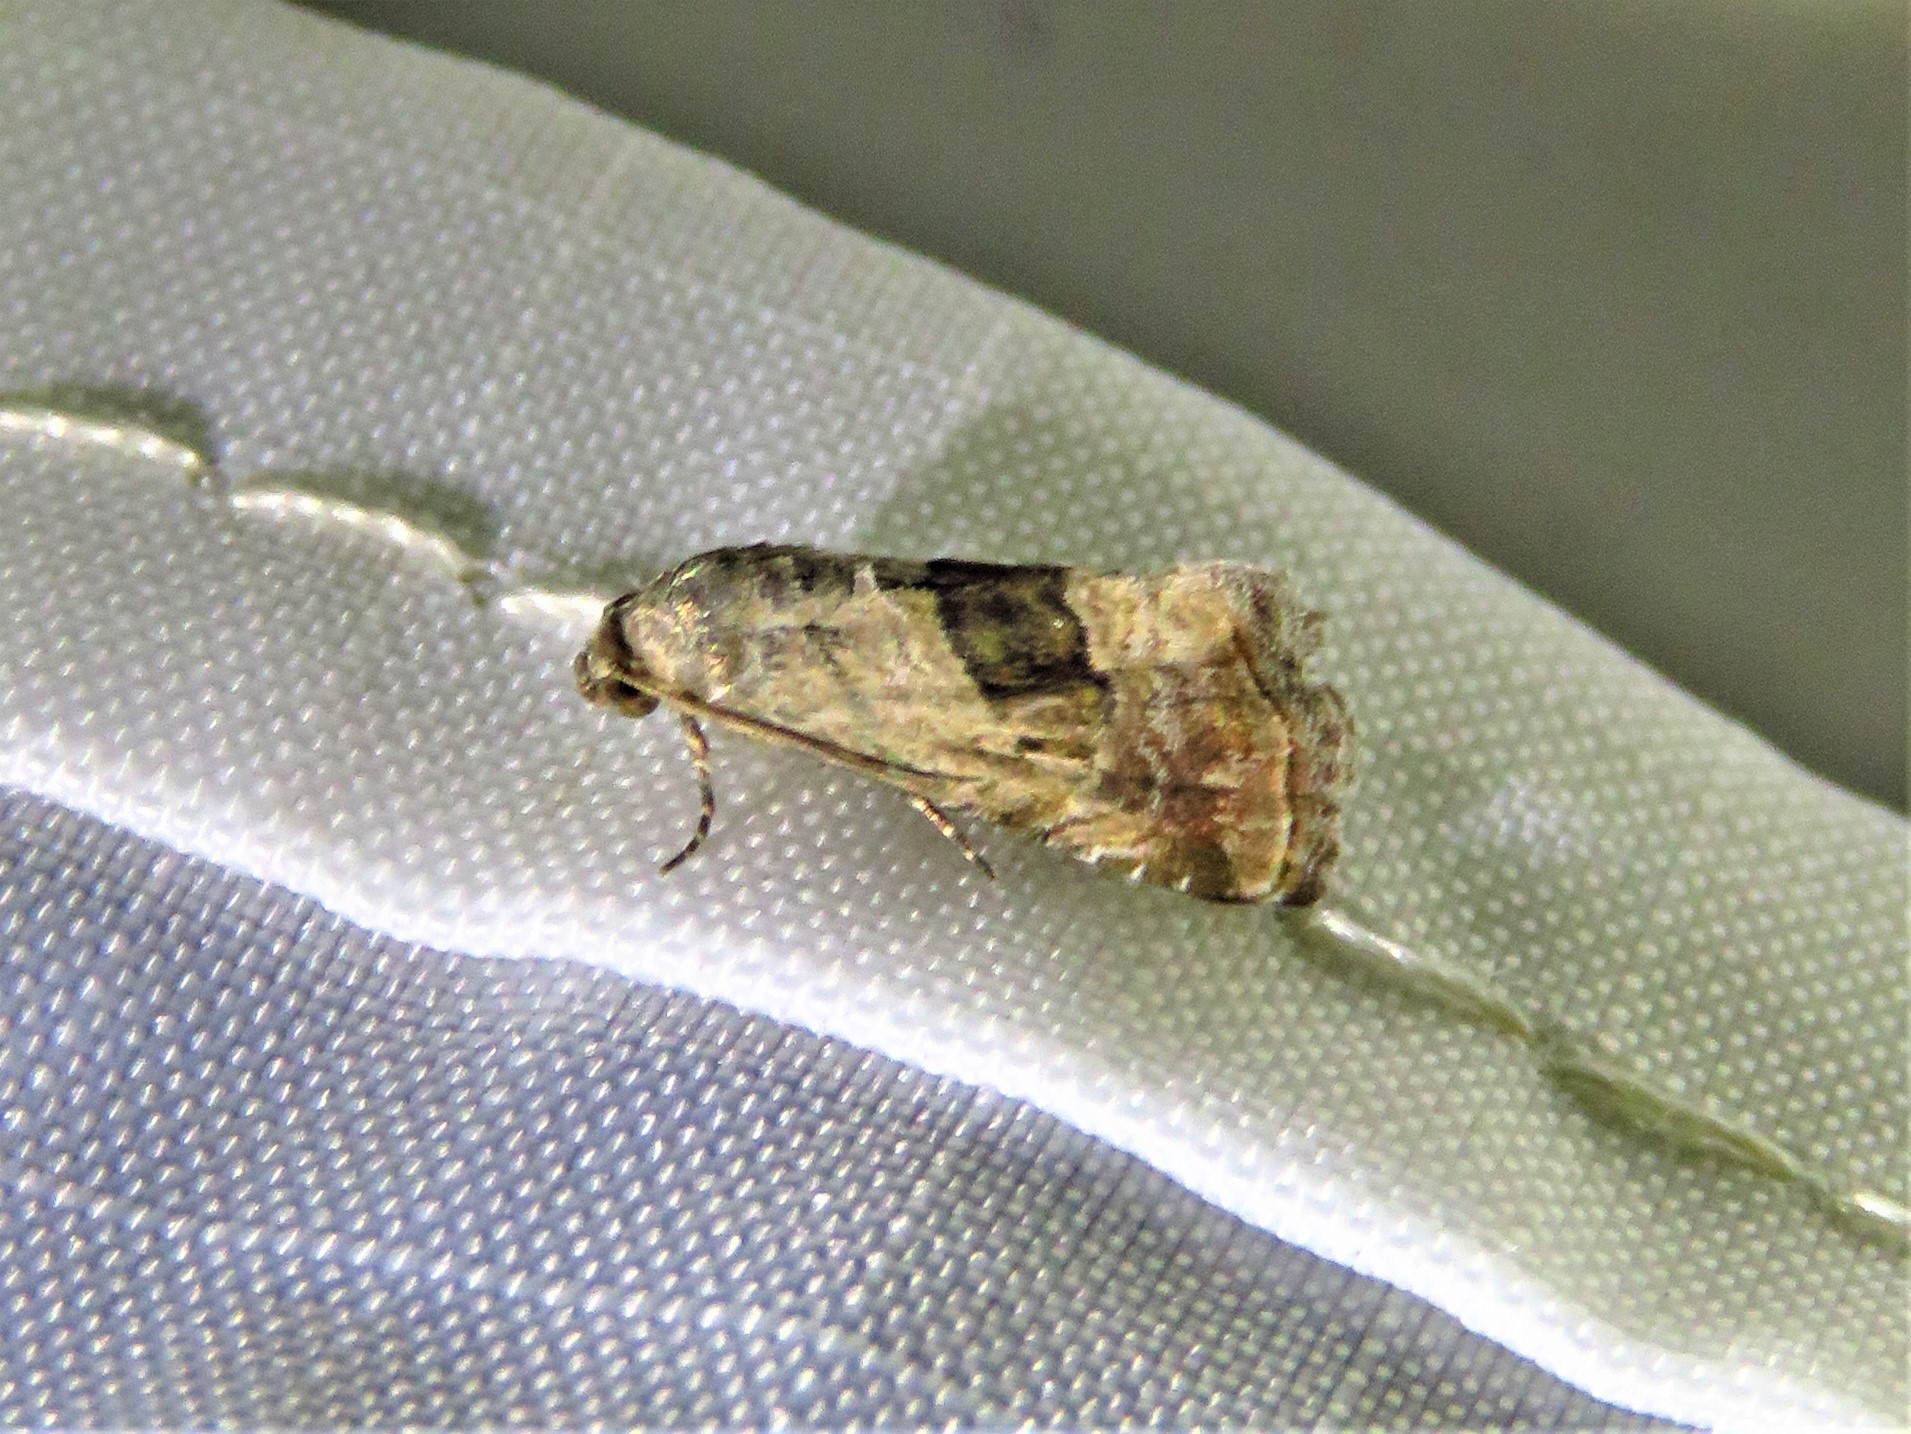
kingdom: Animalia
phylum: Arthropoda
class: Insecta
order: Lepidoptera
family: Noctuidae
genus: Tripudia
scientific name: Tripudia quadrifera
